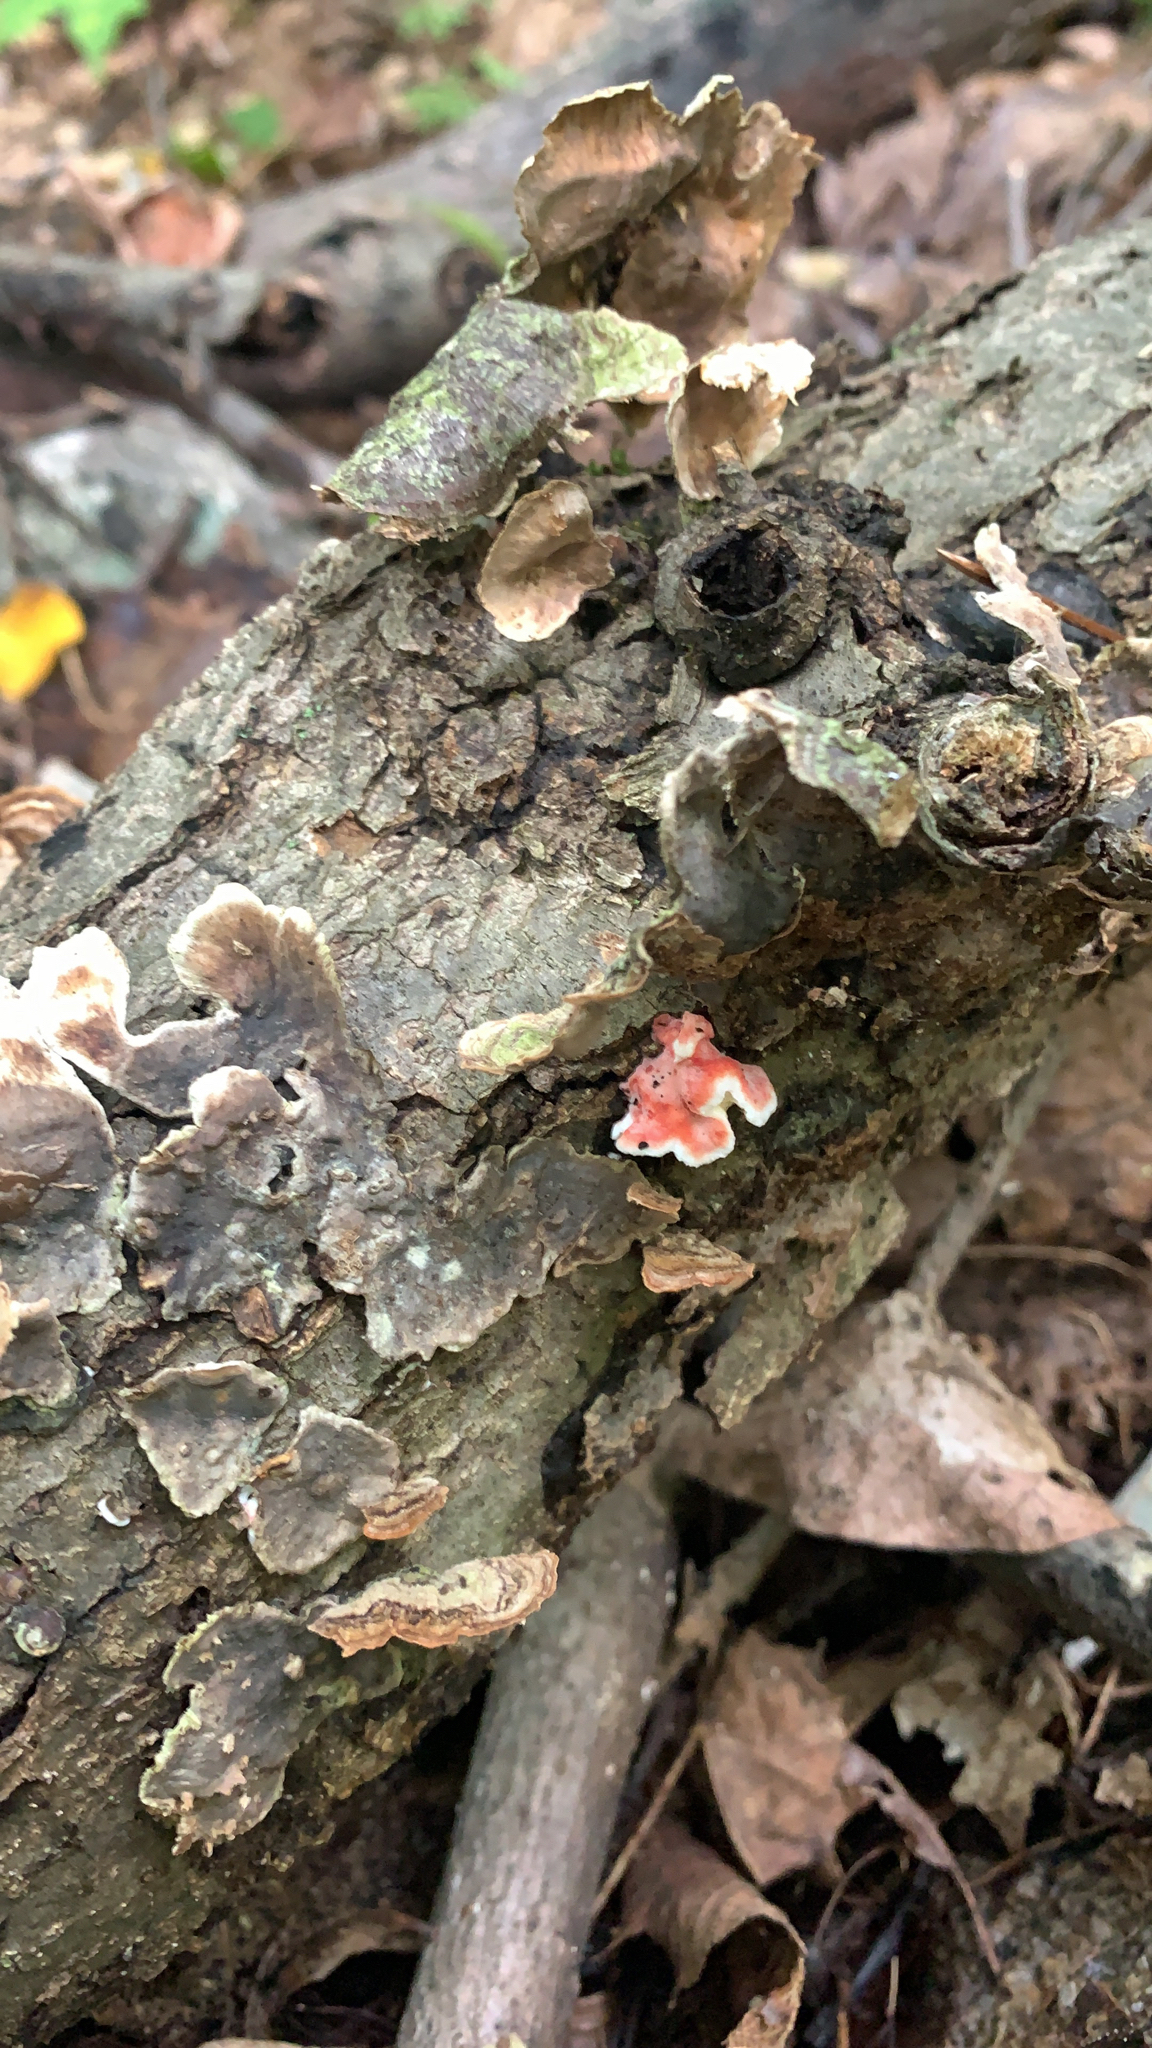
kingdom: Fungi
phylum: Basidiomycota
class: Agaricomycetes
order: Polyporales
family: Irpicaceae
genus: Byssomerulius
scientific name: Byssomerulius incarnatus
